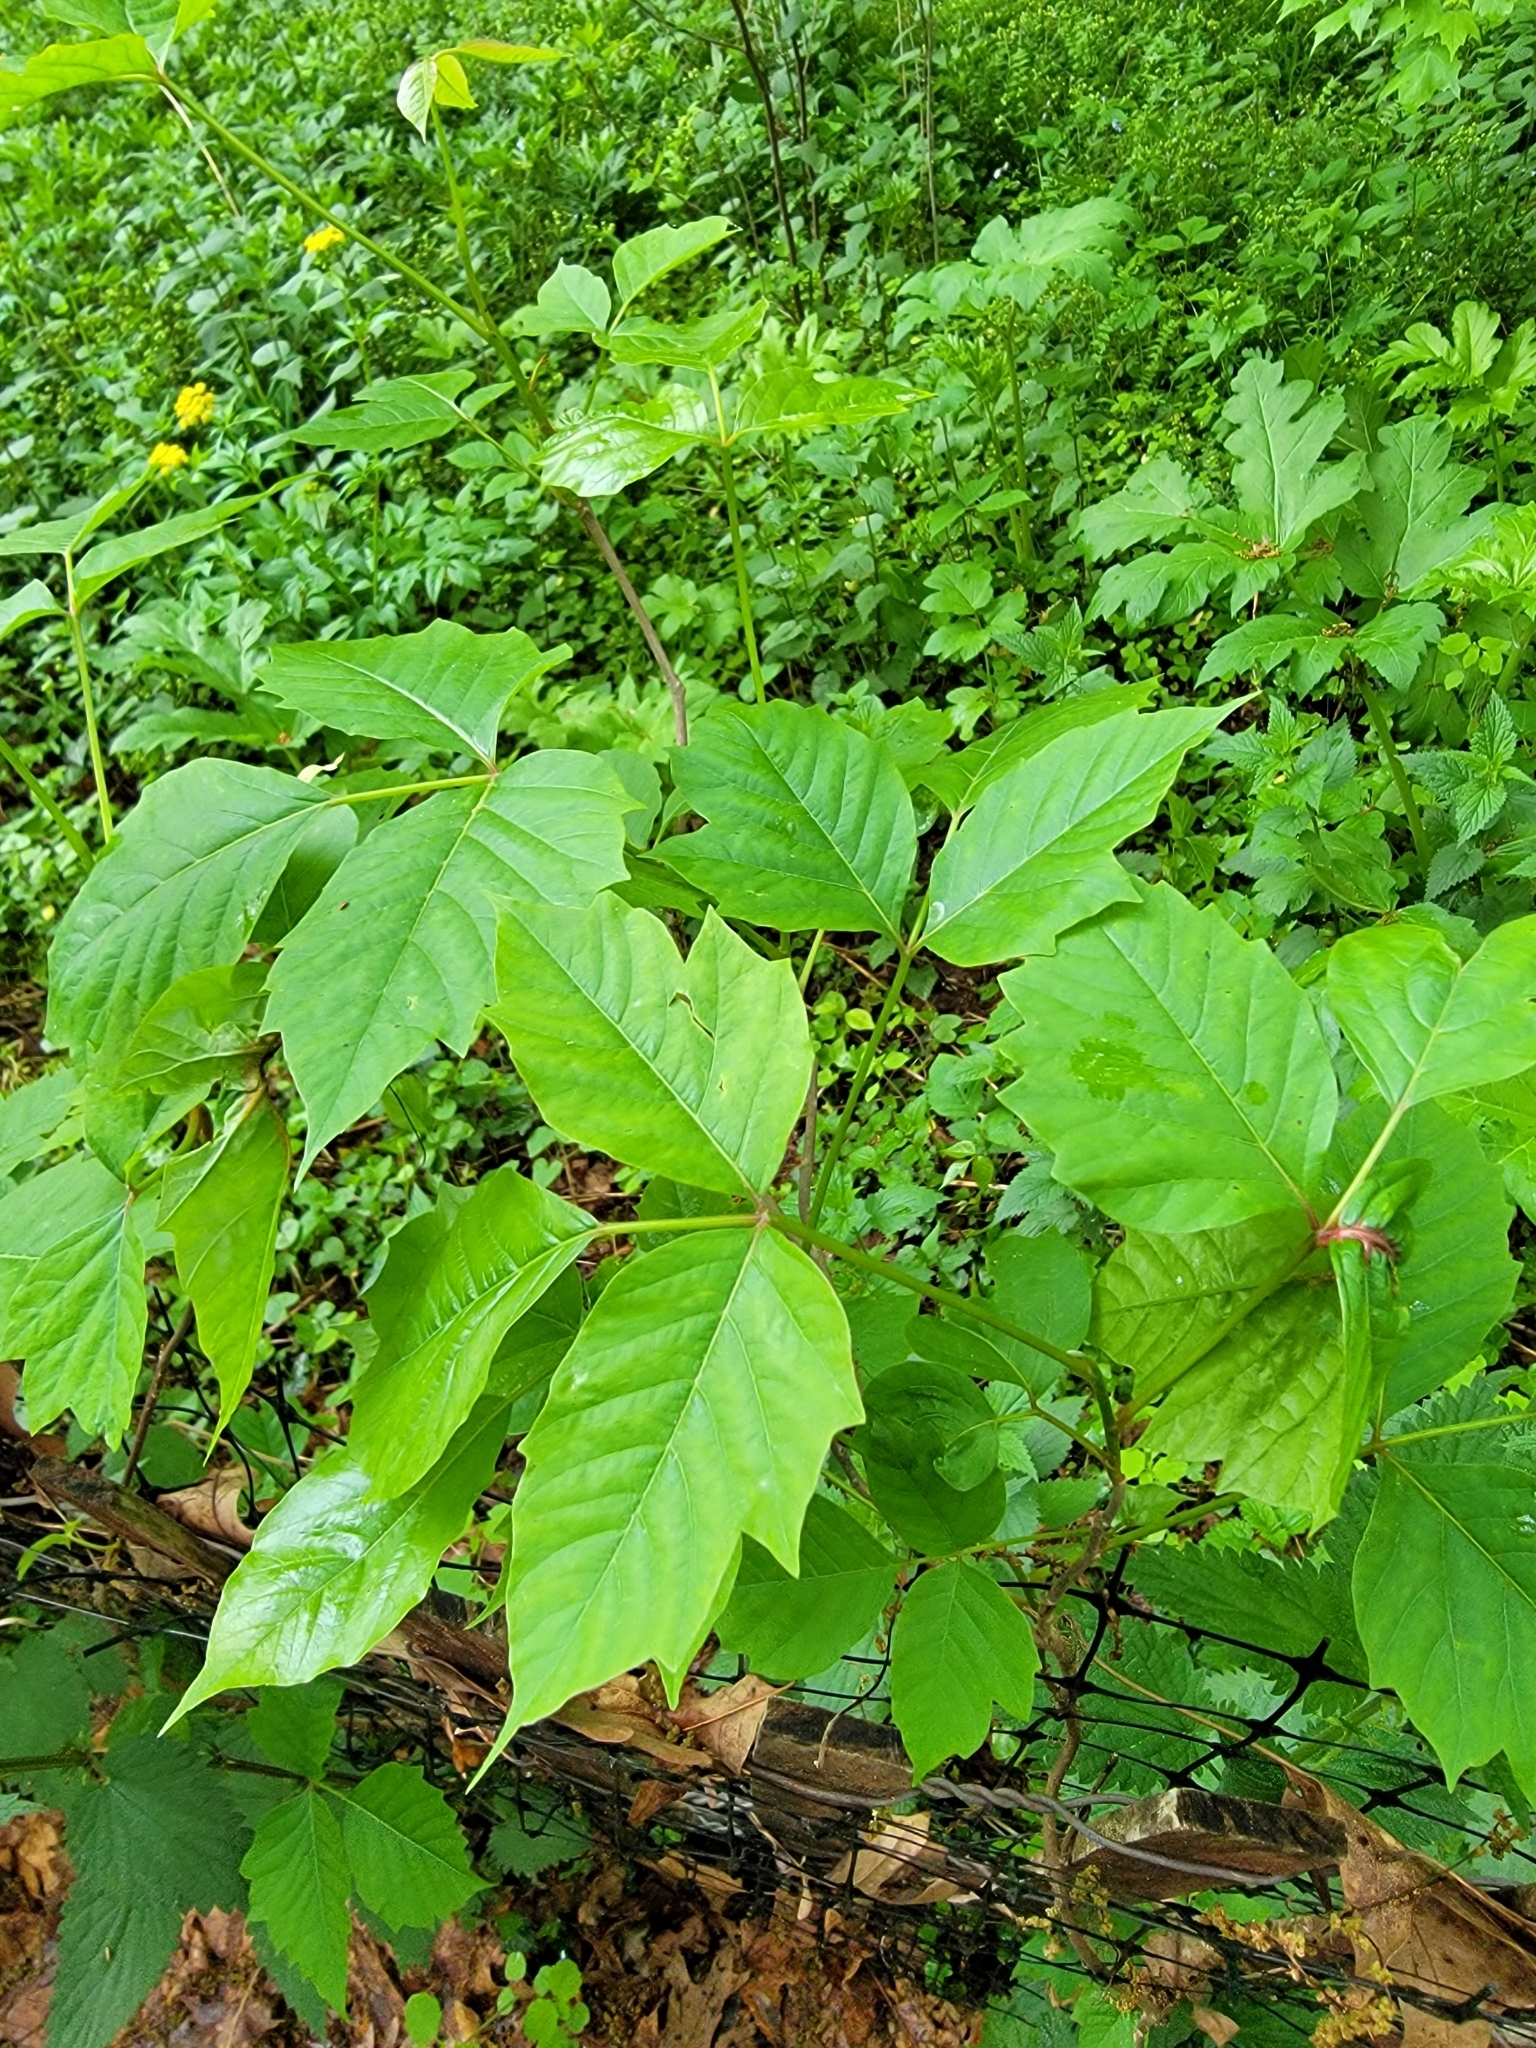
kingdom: Plantae
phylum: Tracheophyta
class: Magnoliopsida
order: Sapindales
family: Anacardiaceae
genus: Toxicodendron
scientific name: Toxicodendron radicans
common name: Poison ivy
